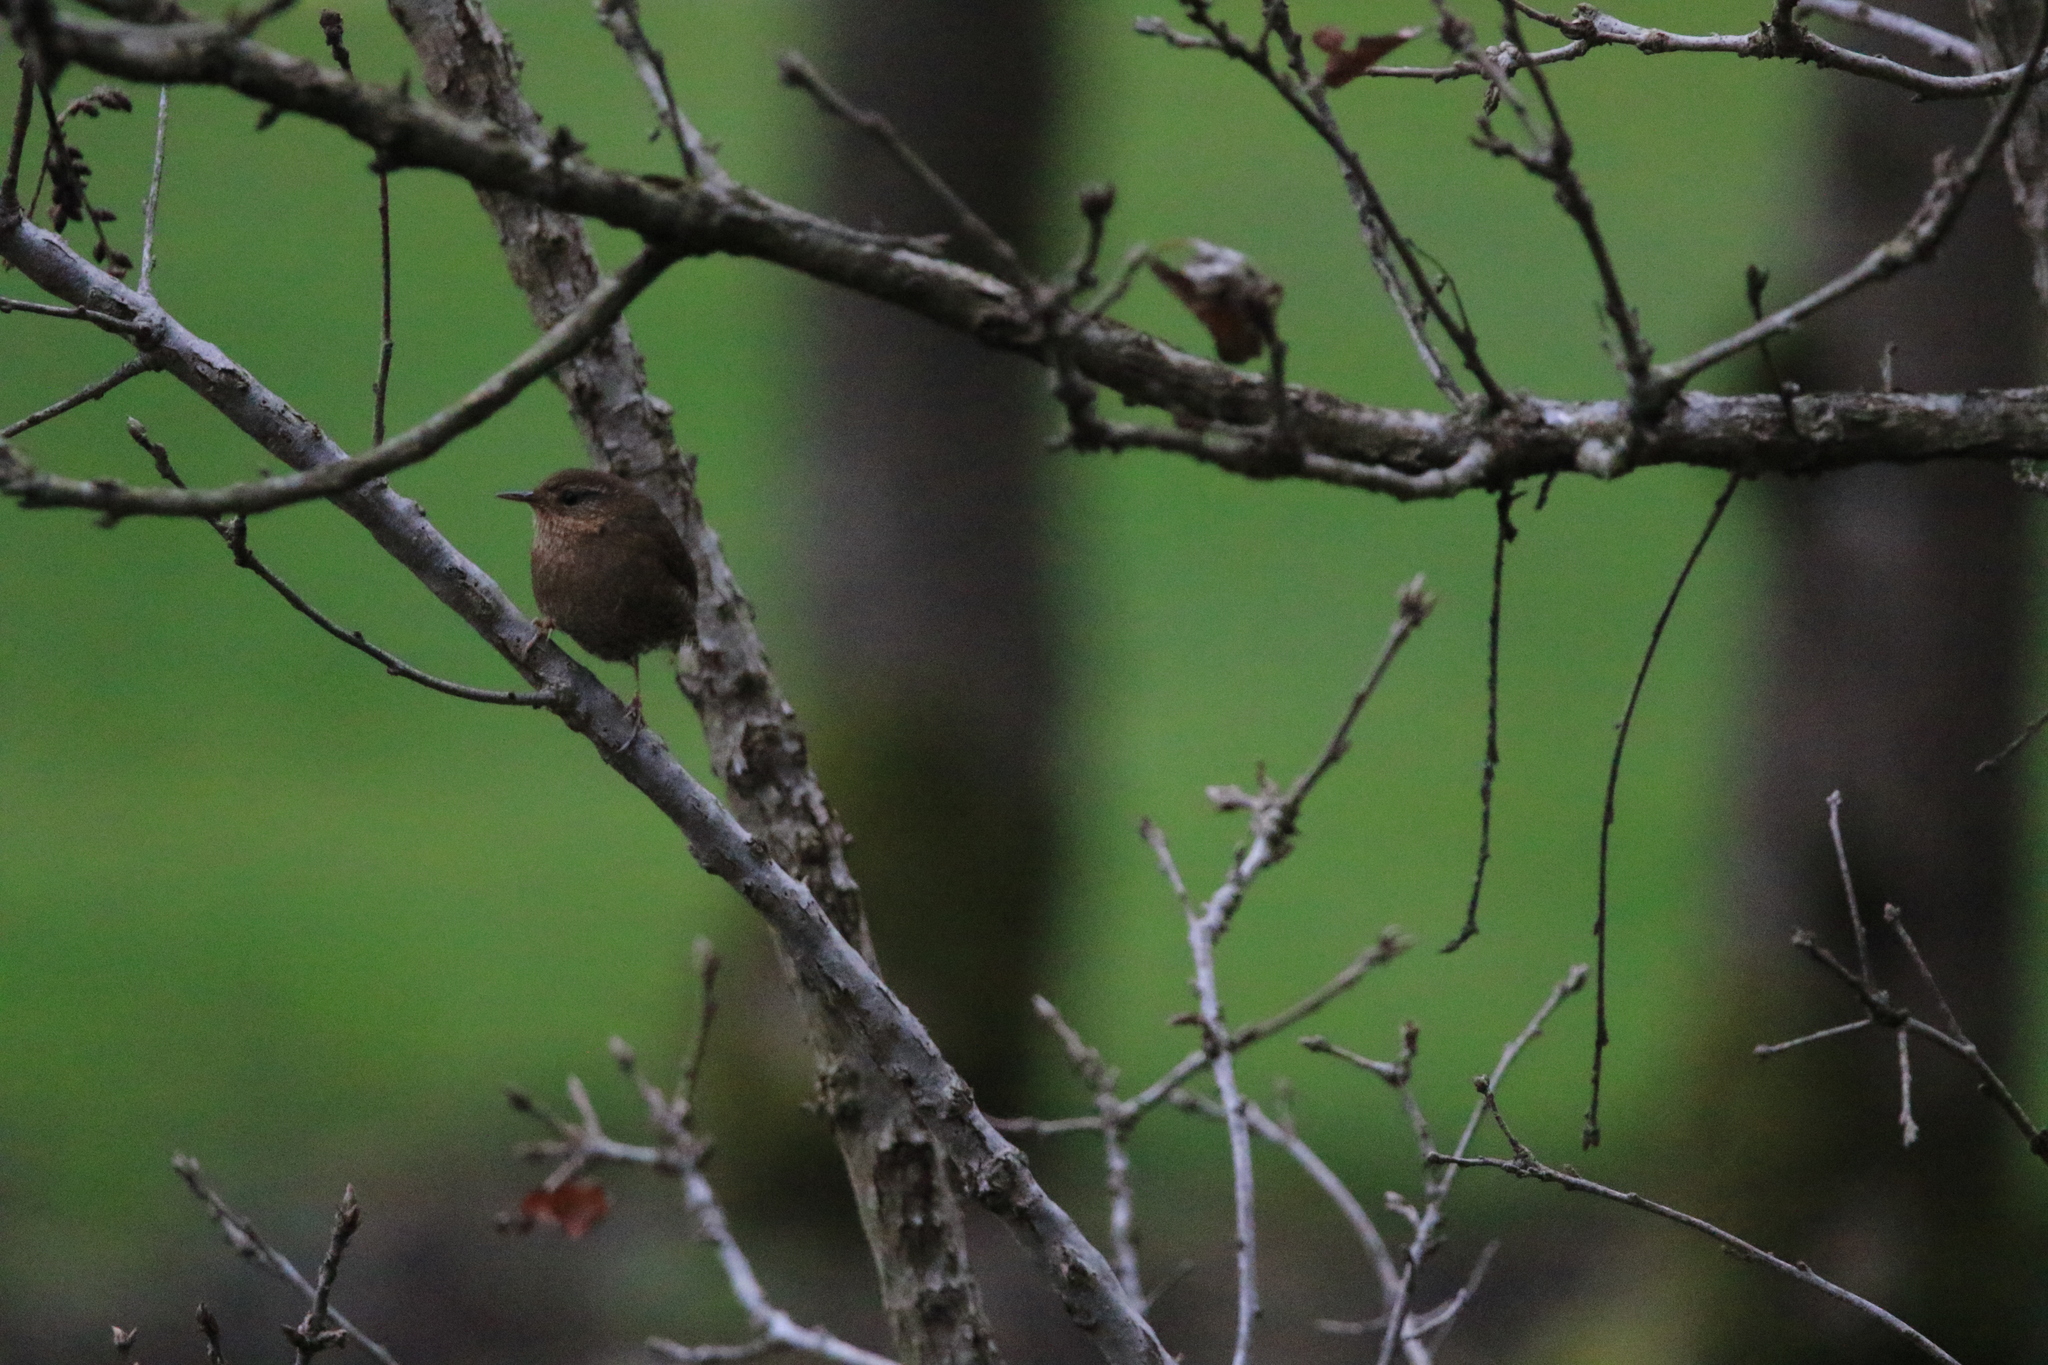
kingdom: Animalia
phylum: Chordata
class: Aves
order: Passeriformes
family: Troglodytidae
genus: Troglodytes
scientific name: Troglodytes pacificus
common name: Pacific wren
